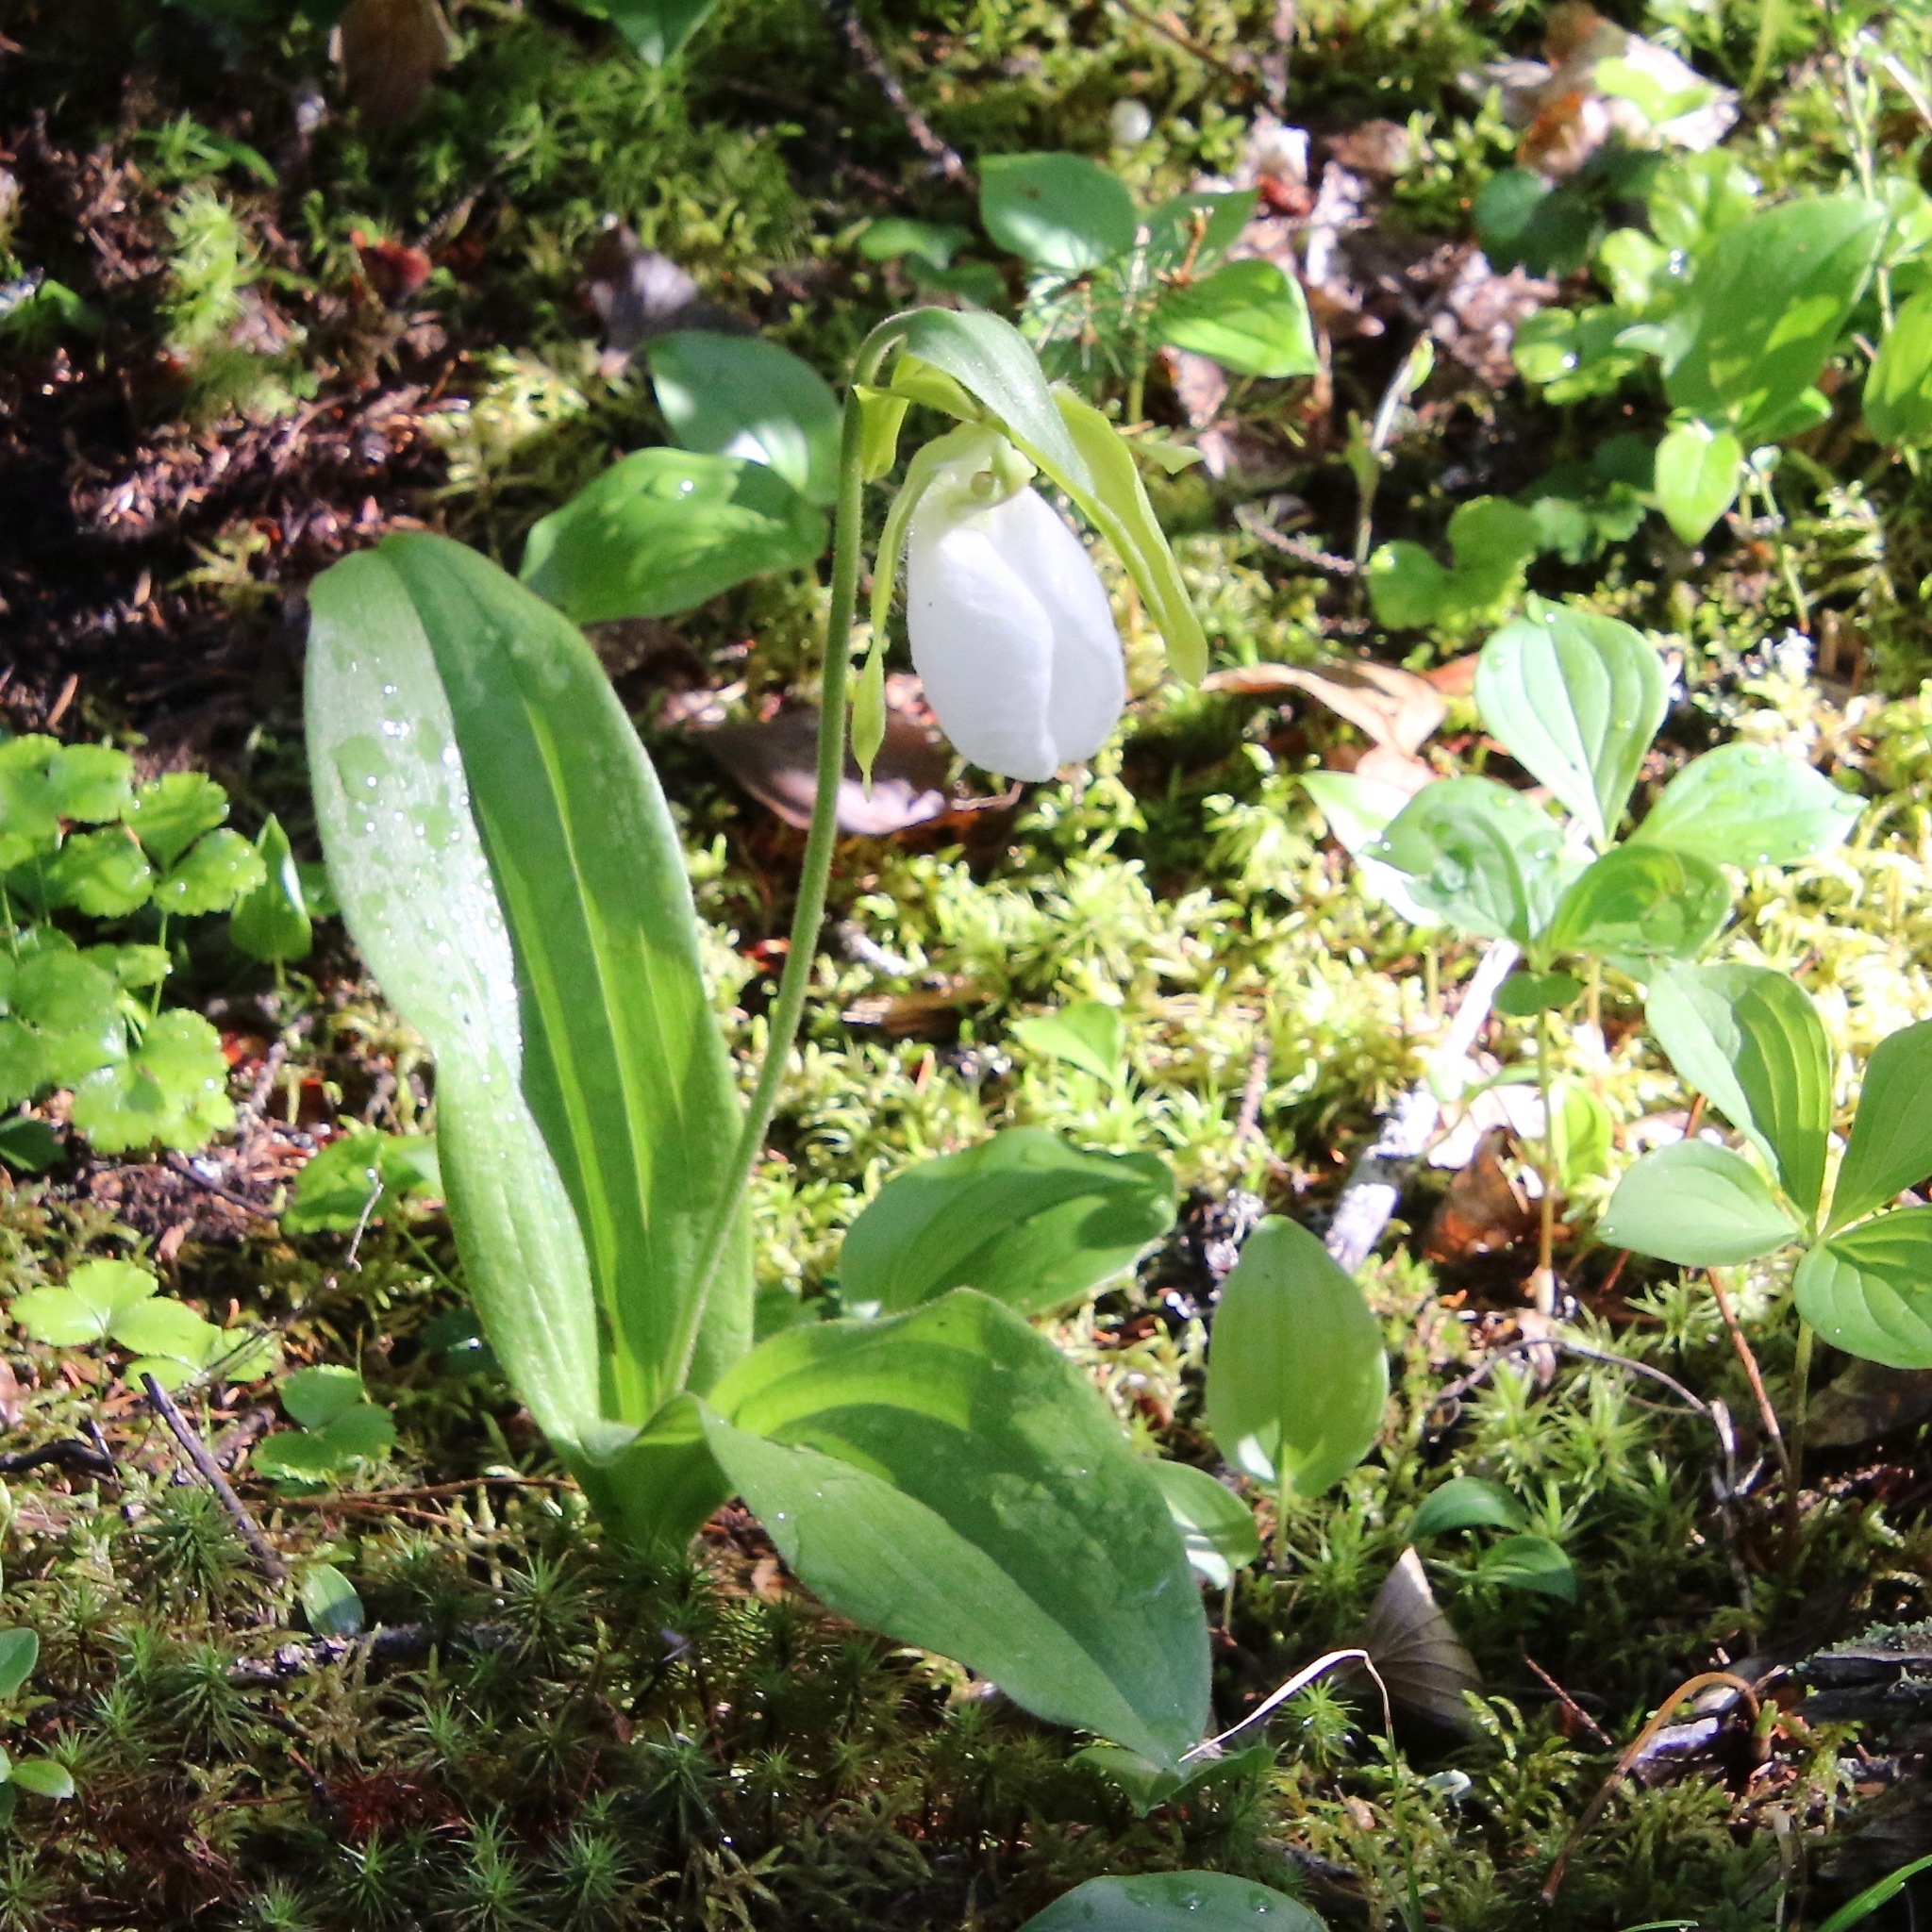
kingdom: Plantae
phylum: Tracheophyta
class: Liliopsida
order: Asparagales
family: Orchidaceae
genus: Cypripedium
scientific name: Cypripedium acaule
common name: Pink lady's-slipper
